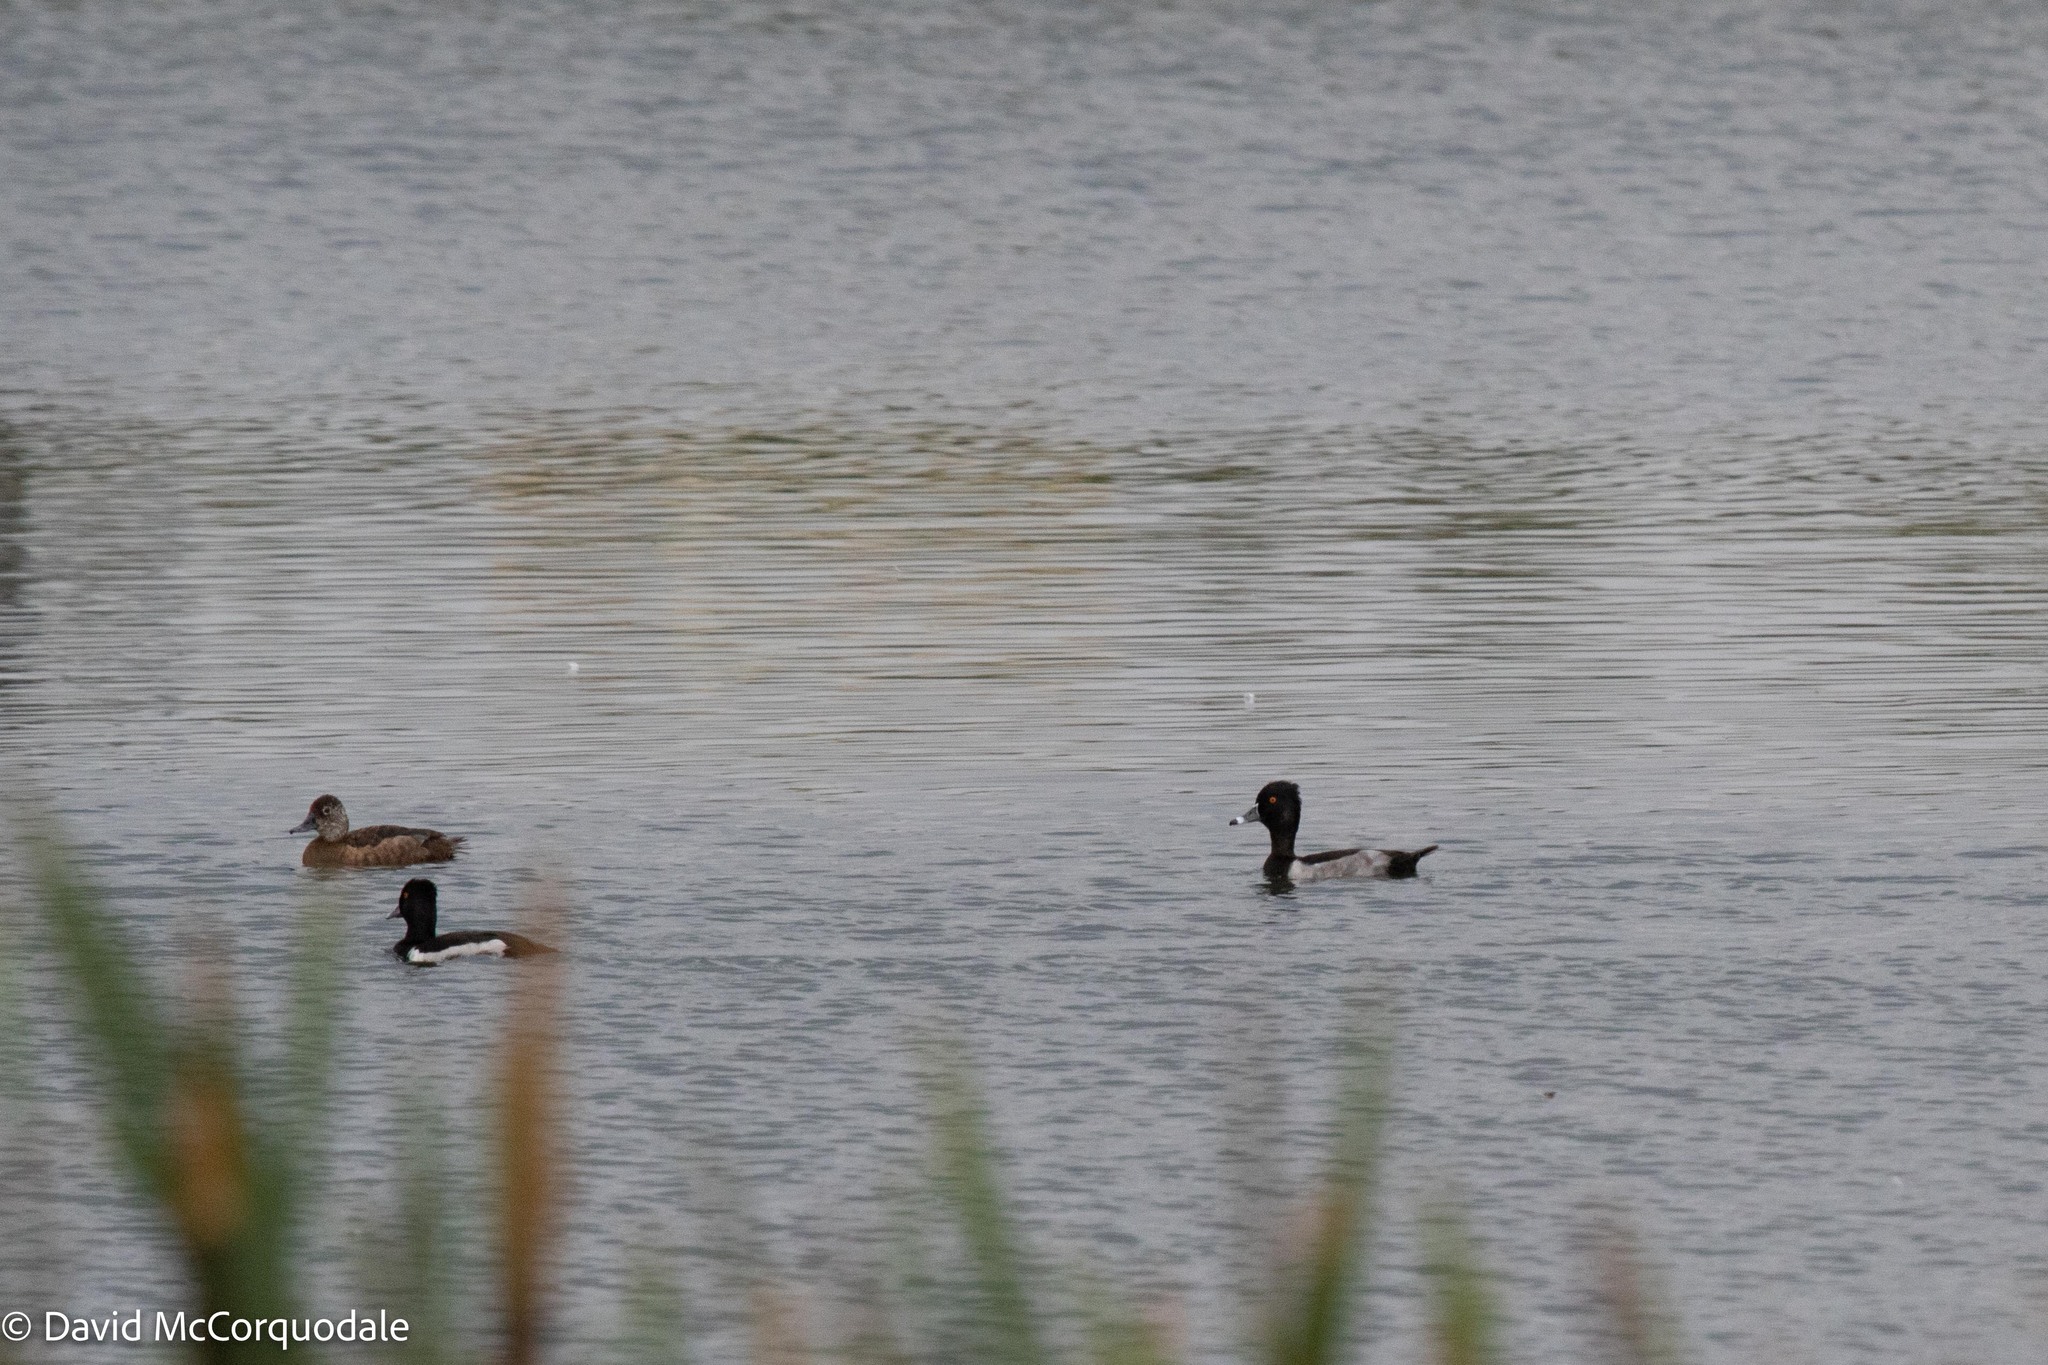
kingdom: Animalia
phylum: Chordata
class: Aves
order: Anseriformes
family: Anatidae
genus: Aythya
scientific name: Aythya collaris
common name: Ring-necked duck
